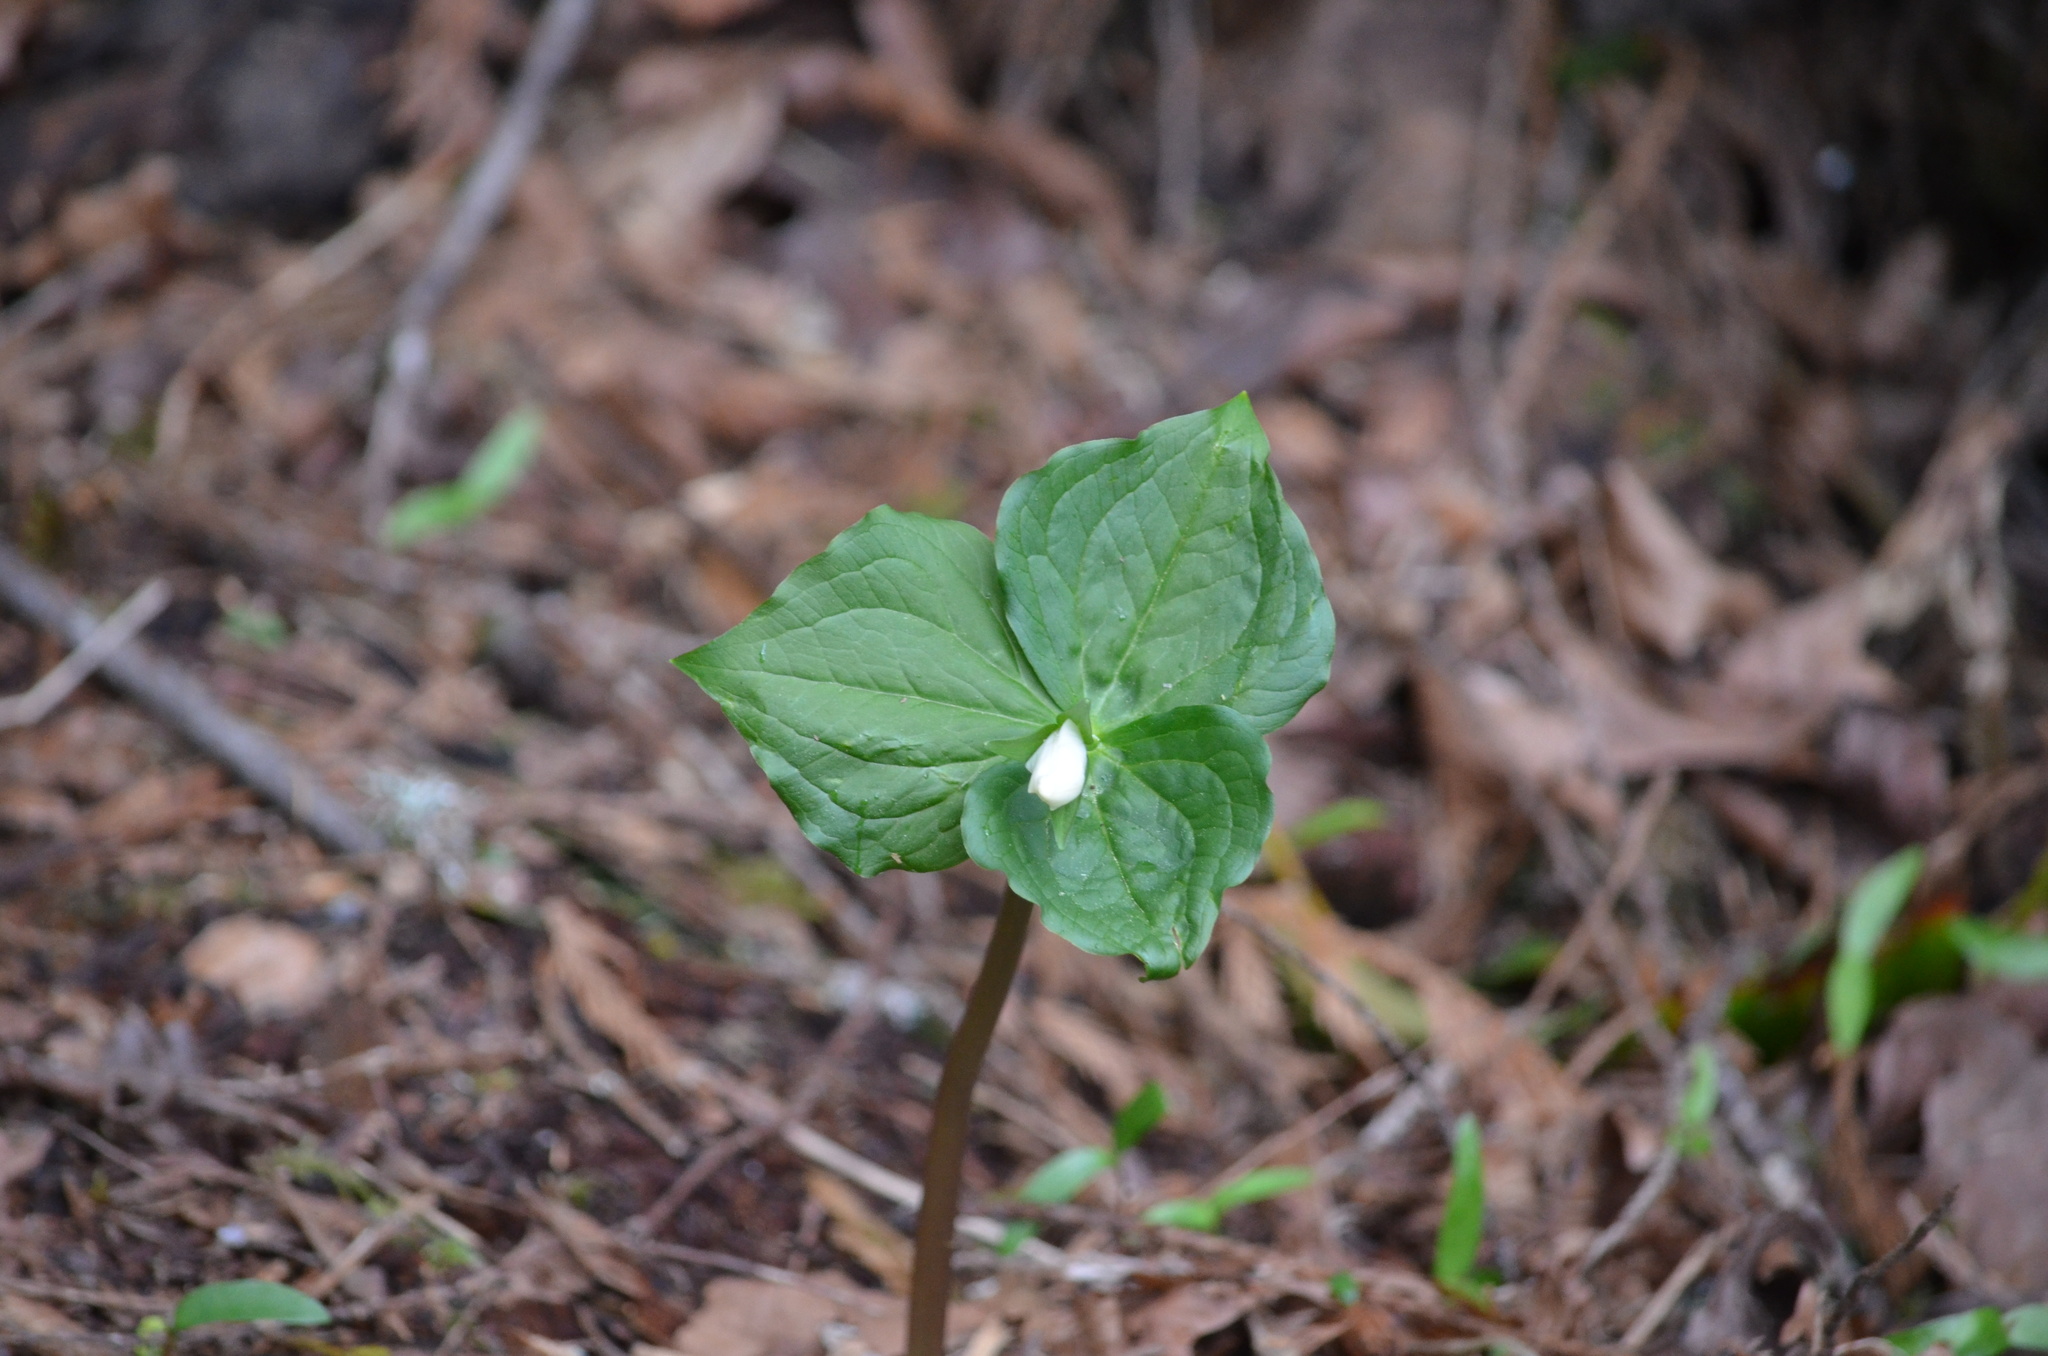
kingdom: Plantae
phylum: Tracheophyta
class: Liliopsida
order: Liliales
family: Melanthiaceae
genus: Trillium
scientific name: Trillium ovatum
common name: Pacific trillium
